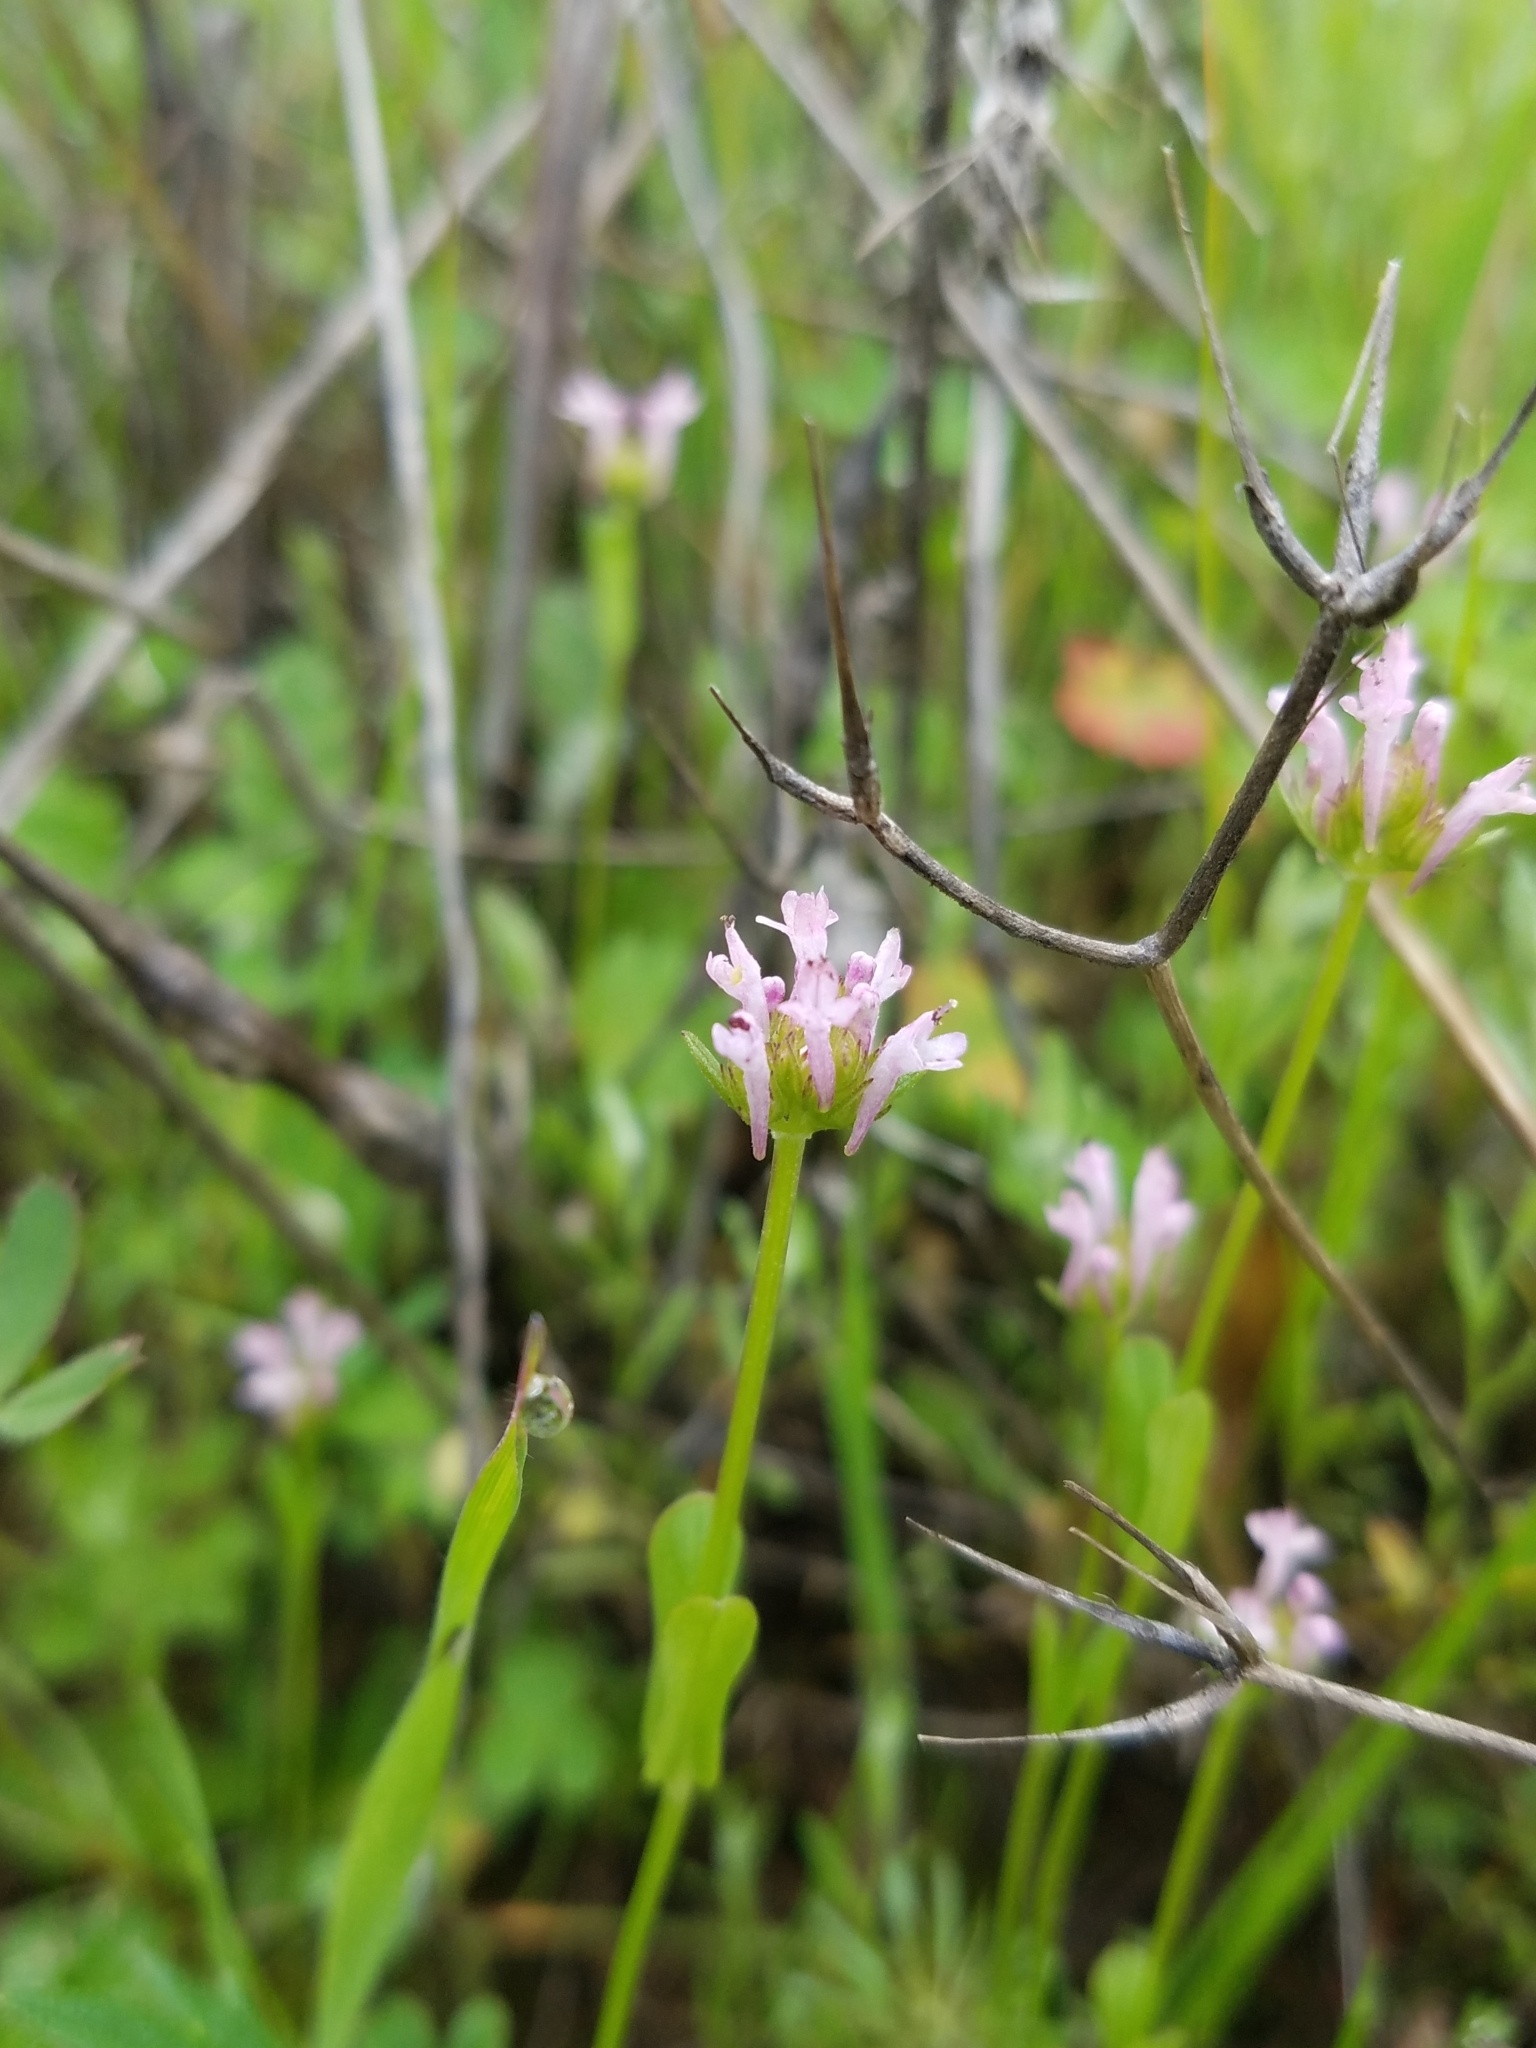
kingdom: Plantae
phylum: Tracheophyta
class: Magnoliopsida
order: Dipsacales
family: Caprifoliaceae
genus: Plectritis
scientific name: Plectritis ciliosa
